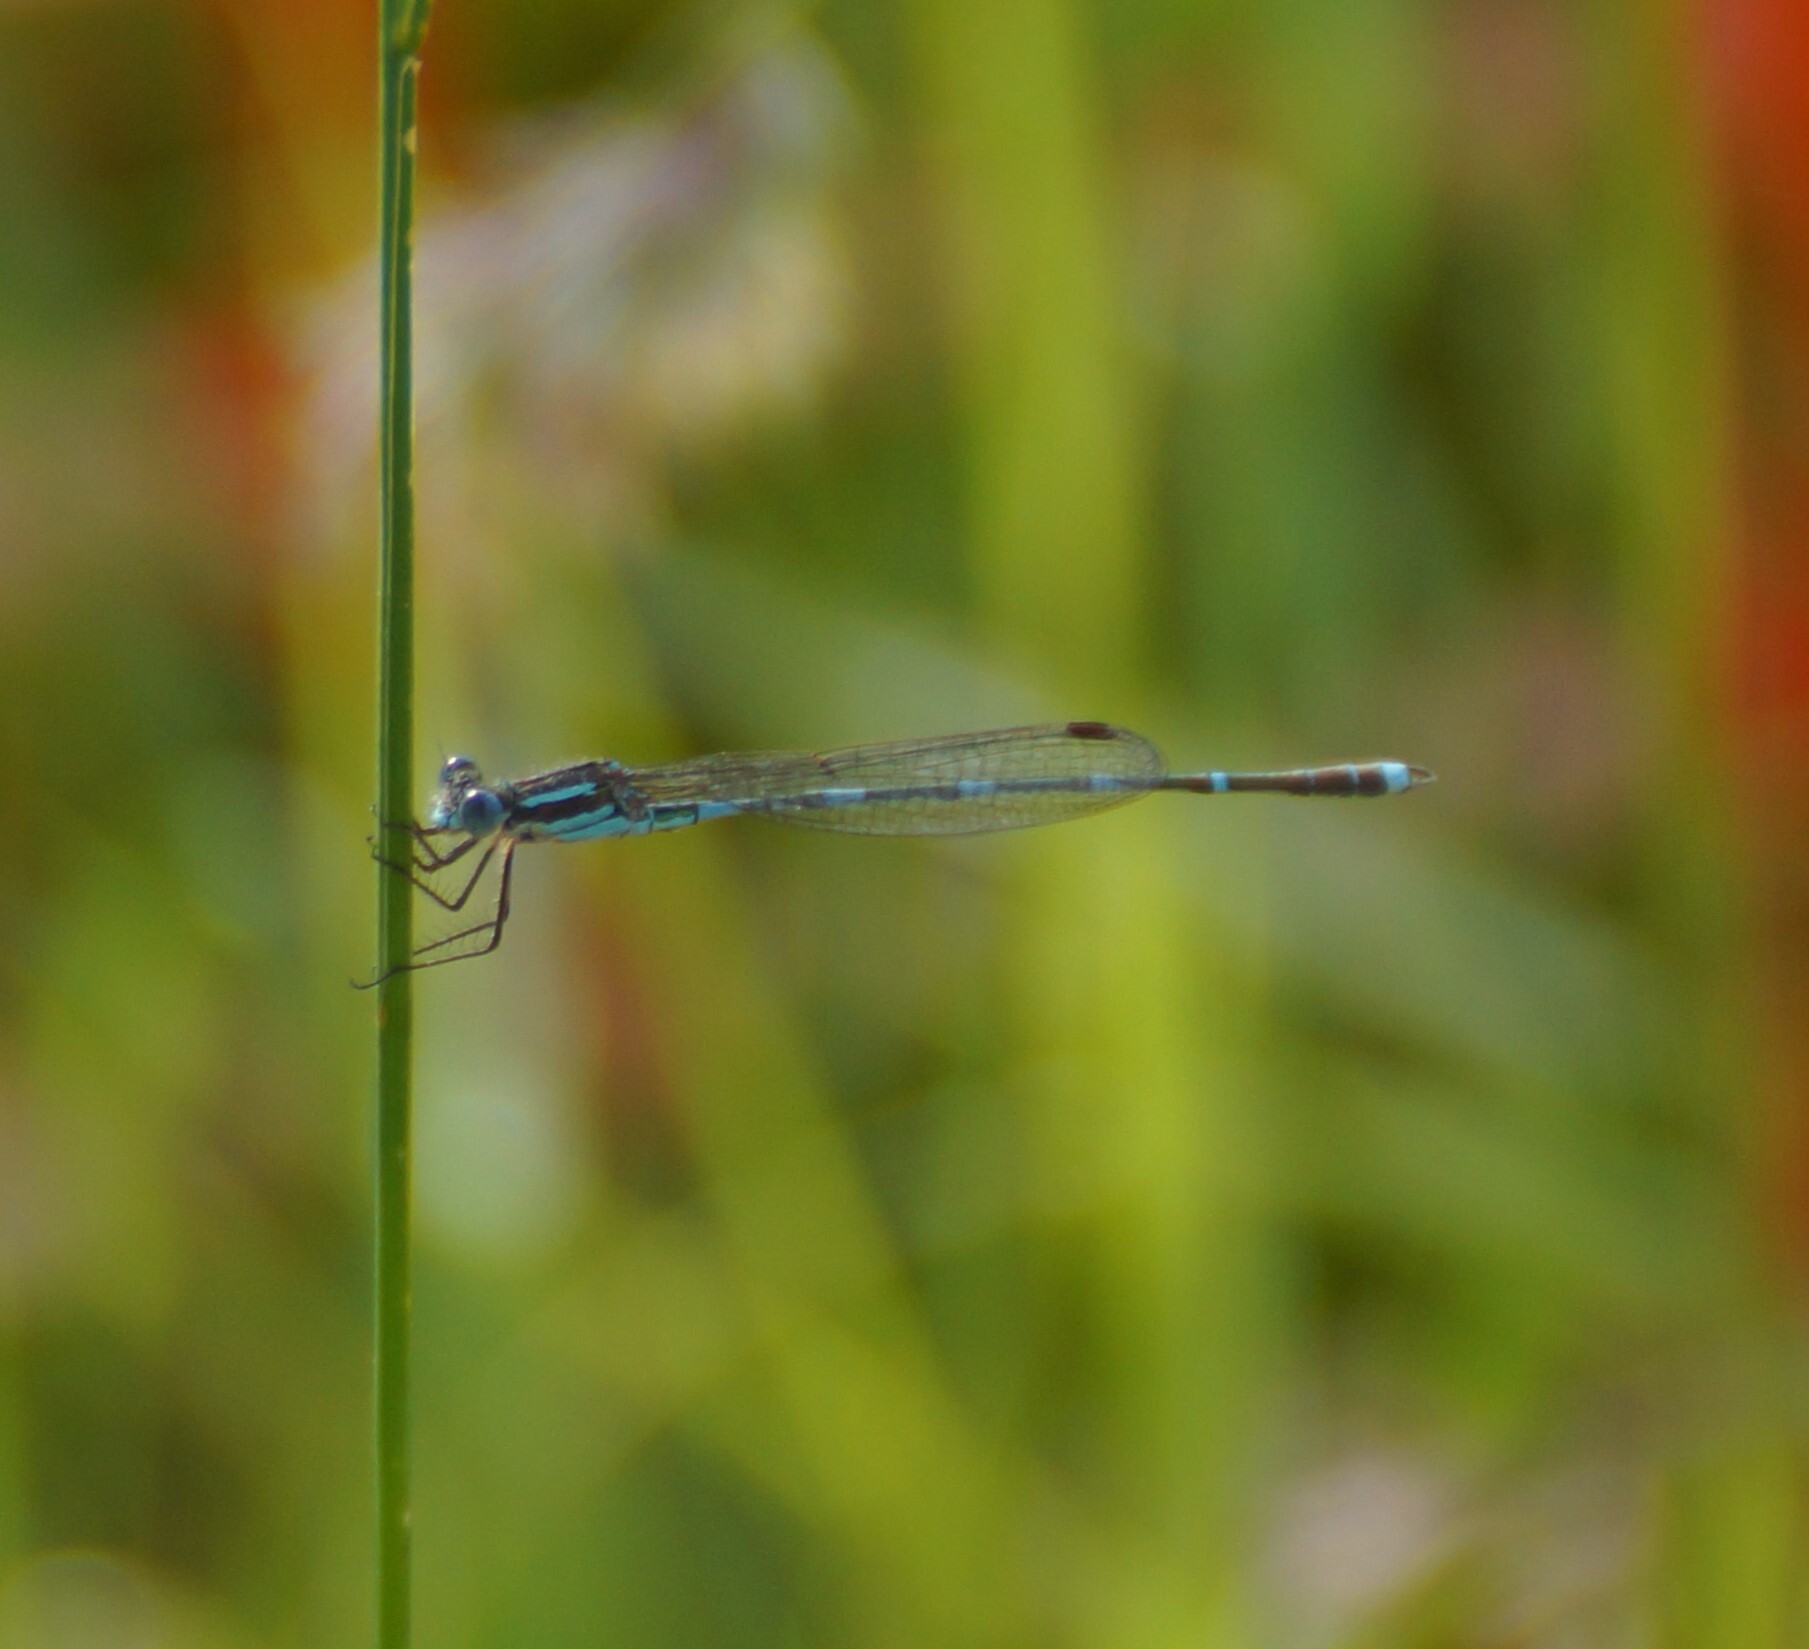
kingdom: Animalia
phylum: Arthropoda
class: Insecta
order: Odonata
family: Lestidae
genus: Austrolestes
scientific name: Austrolestes leda
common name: Wandering ringtail
